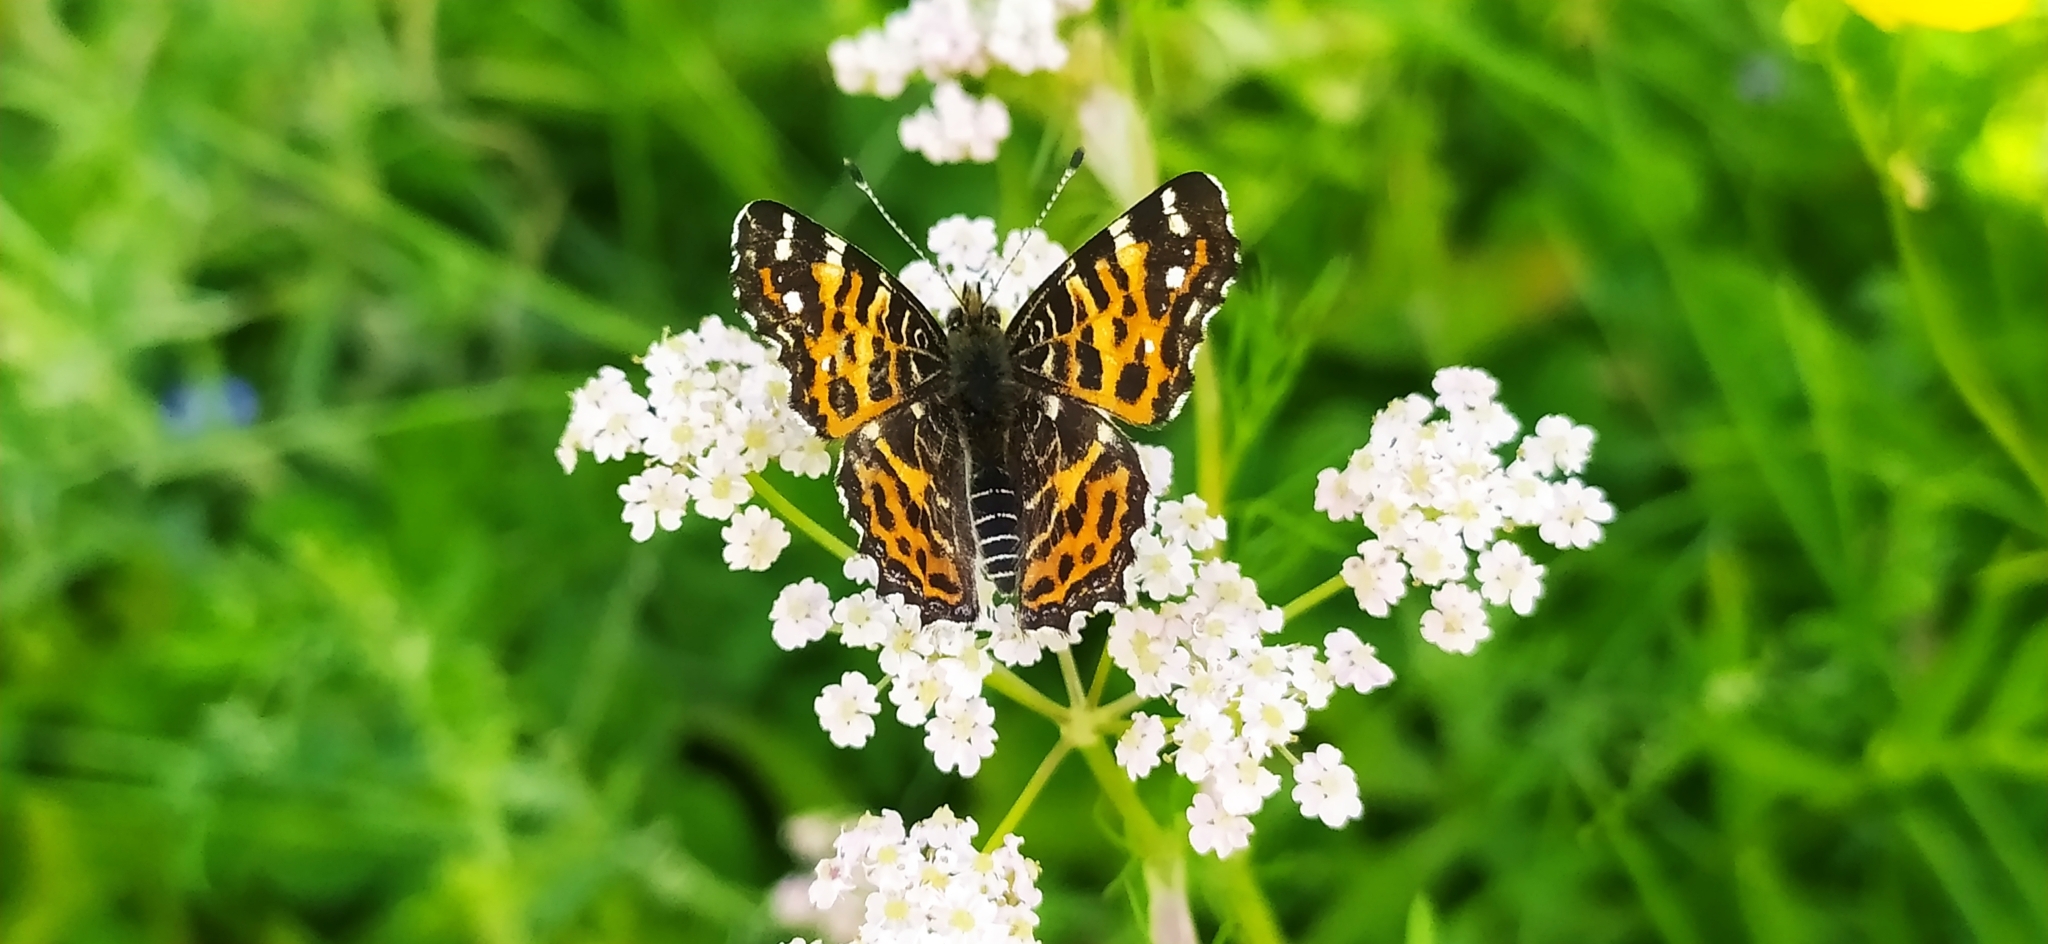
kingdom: Animalia
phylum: Arthropoda
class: Insecta
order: Lepidoptera
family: Nymphalidae
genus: Araschnia
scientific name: Araschnia levana
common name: Map butterfly
